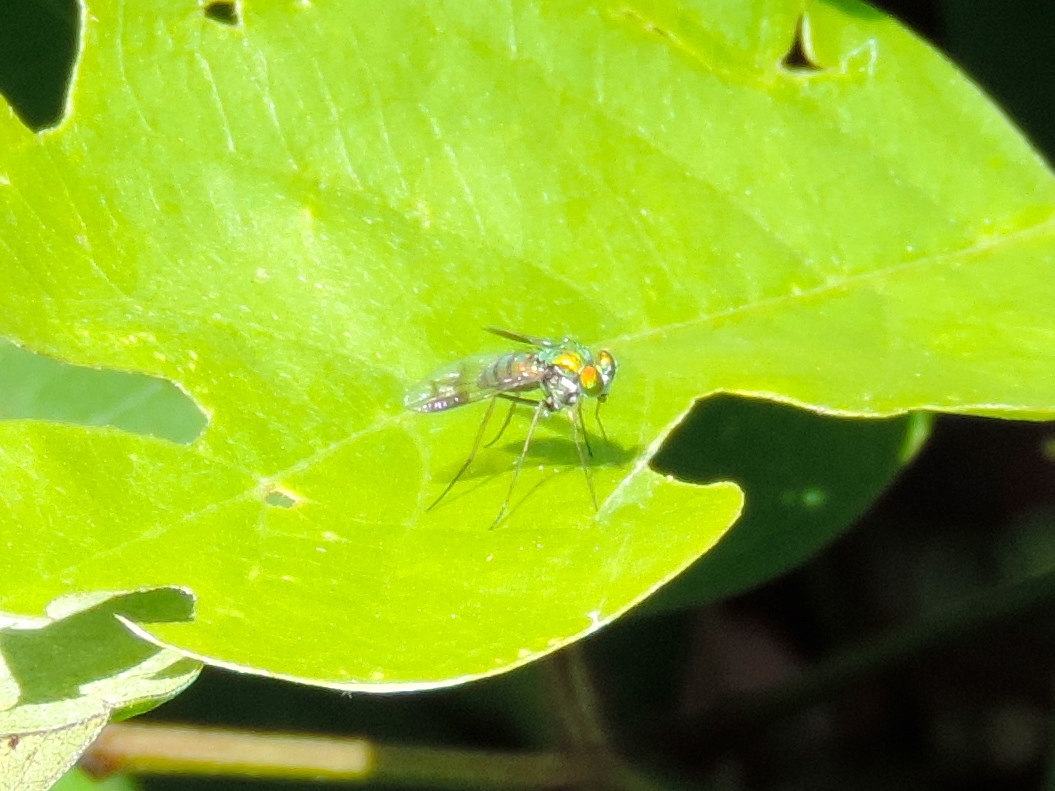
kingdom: Animalia
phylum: Arthropoda
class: Insecta
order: Diptera
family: Dolichopodidae
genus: Condylostylus
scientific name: Condylostylus
